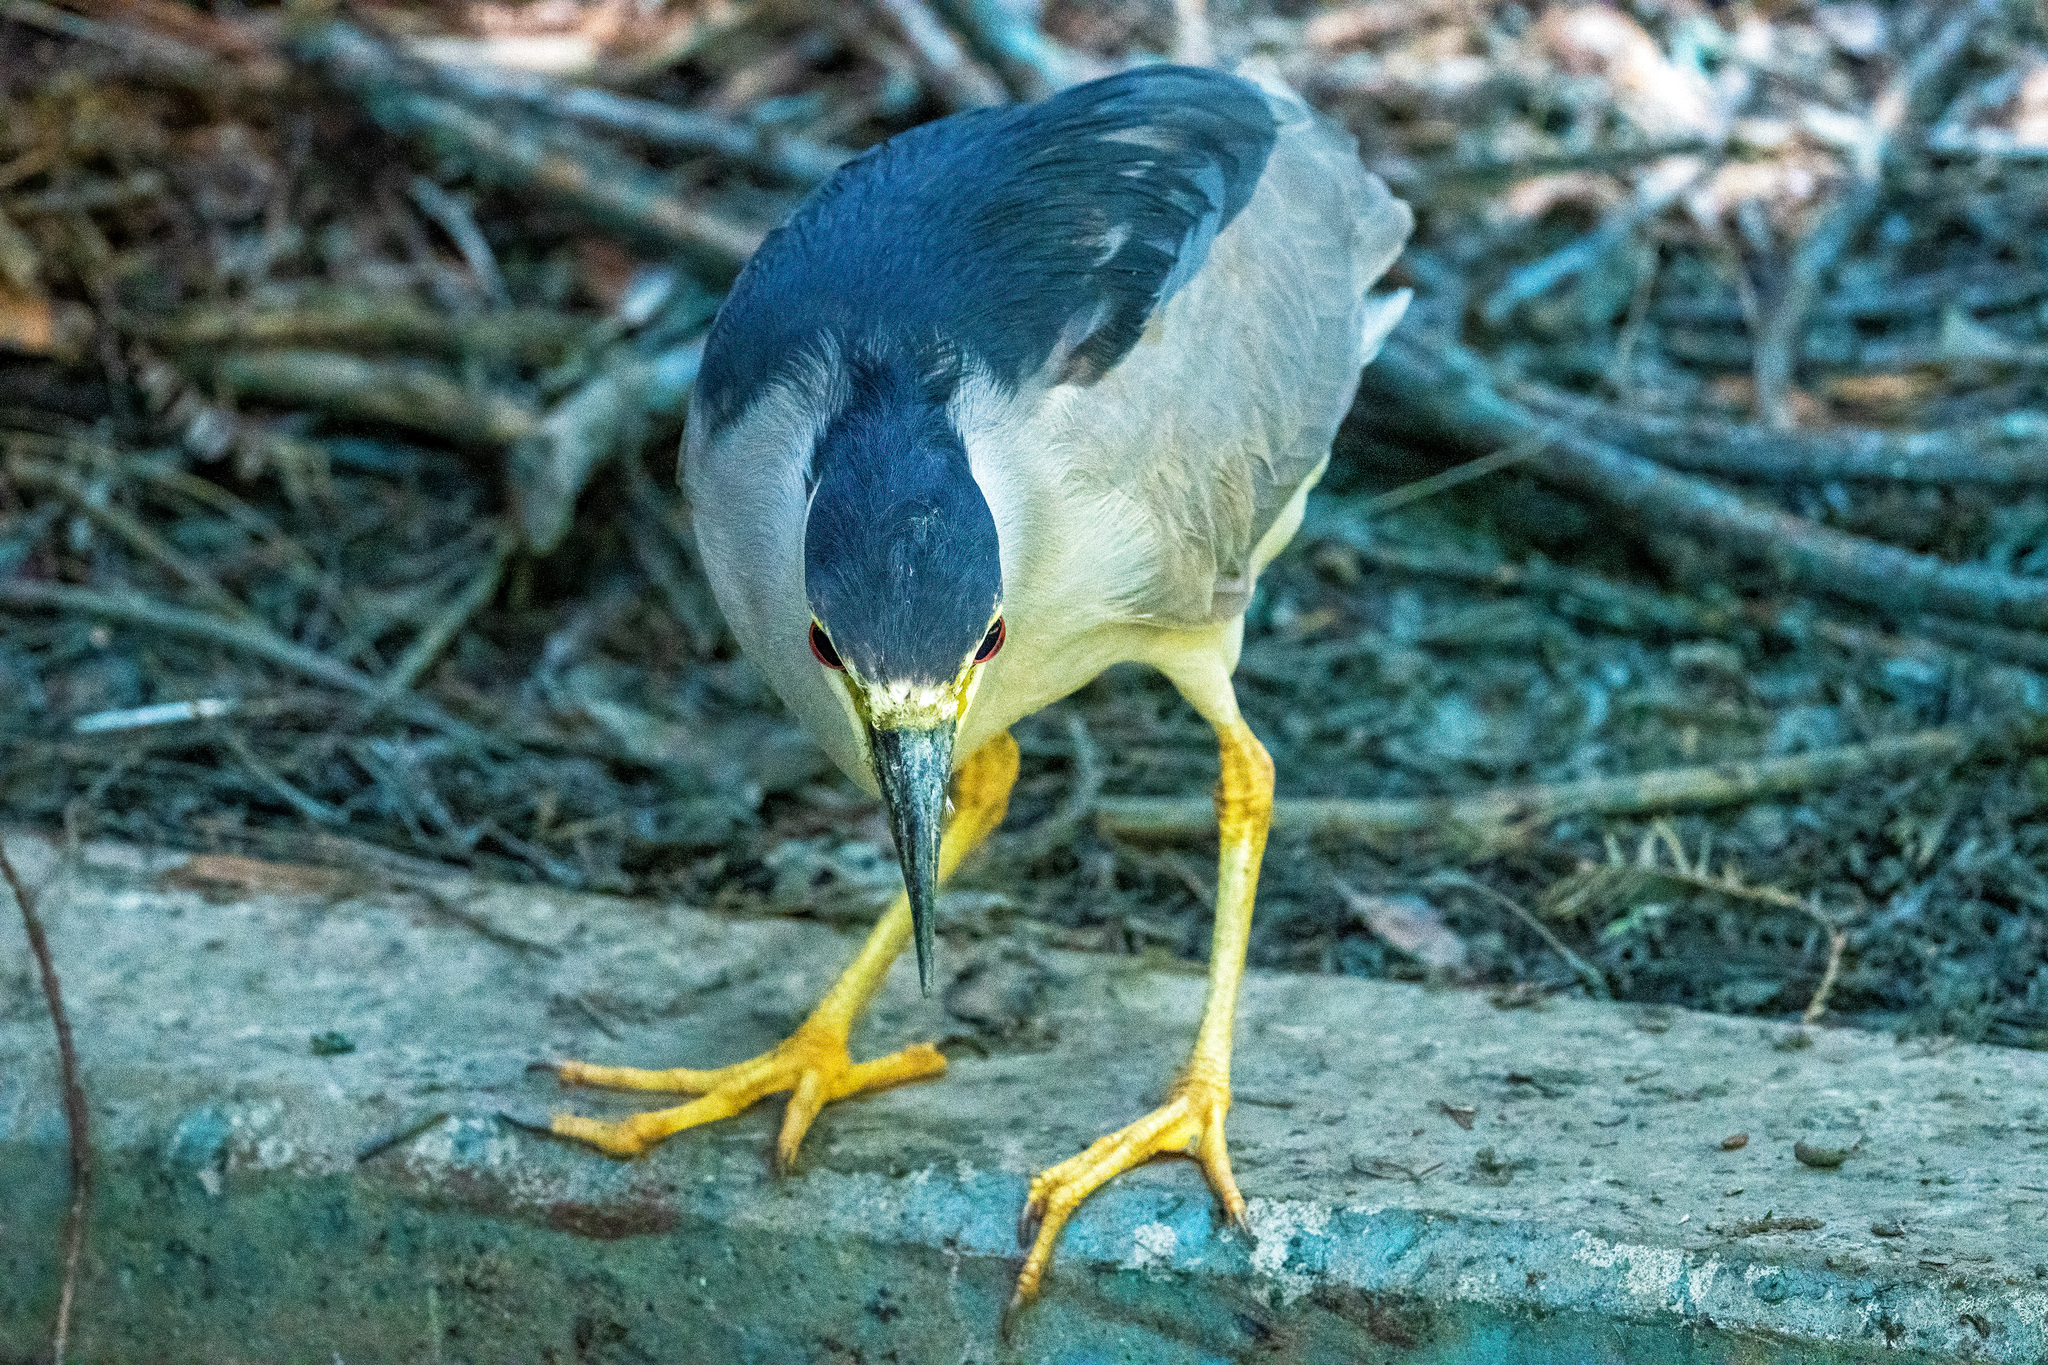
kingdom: Animalia
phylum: Chordata
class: Aves
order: Pelecaniformes
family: Ardeidae
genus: Nycticorax
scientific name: Nycticorax nycticorax
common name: Black-crowned night heron
